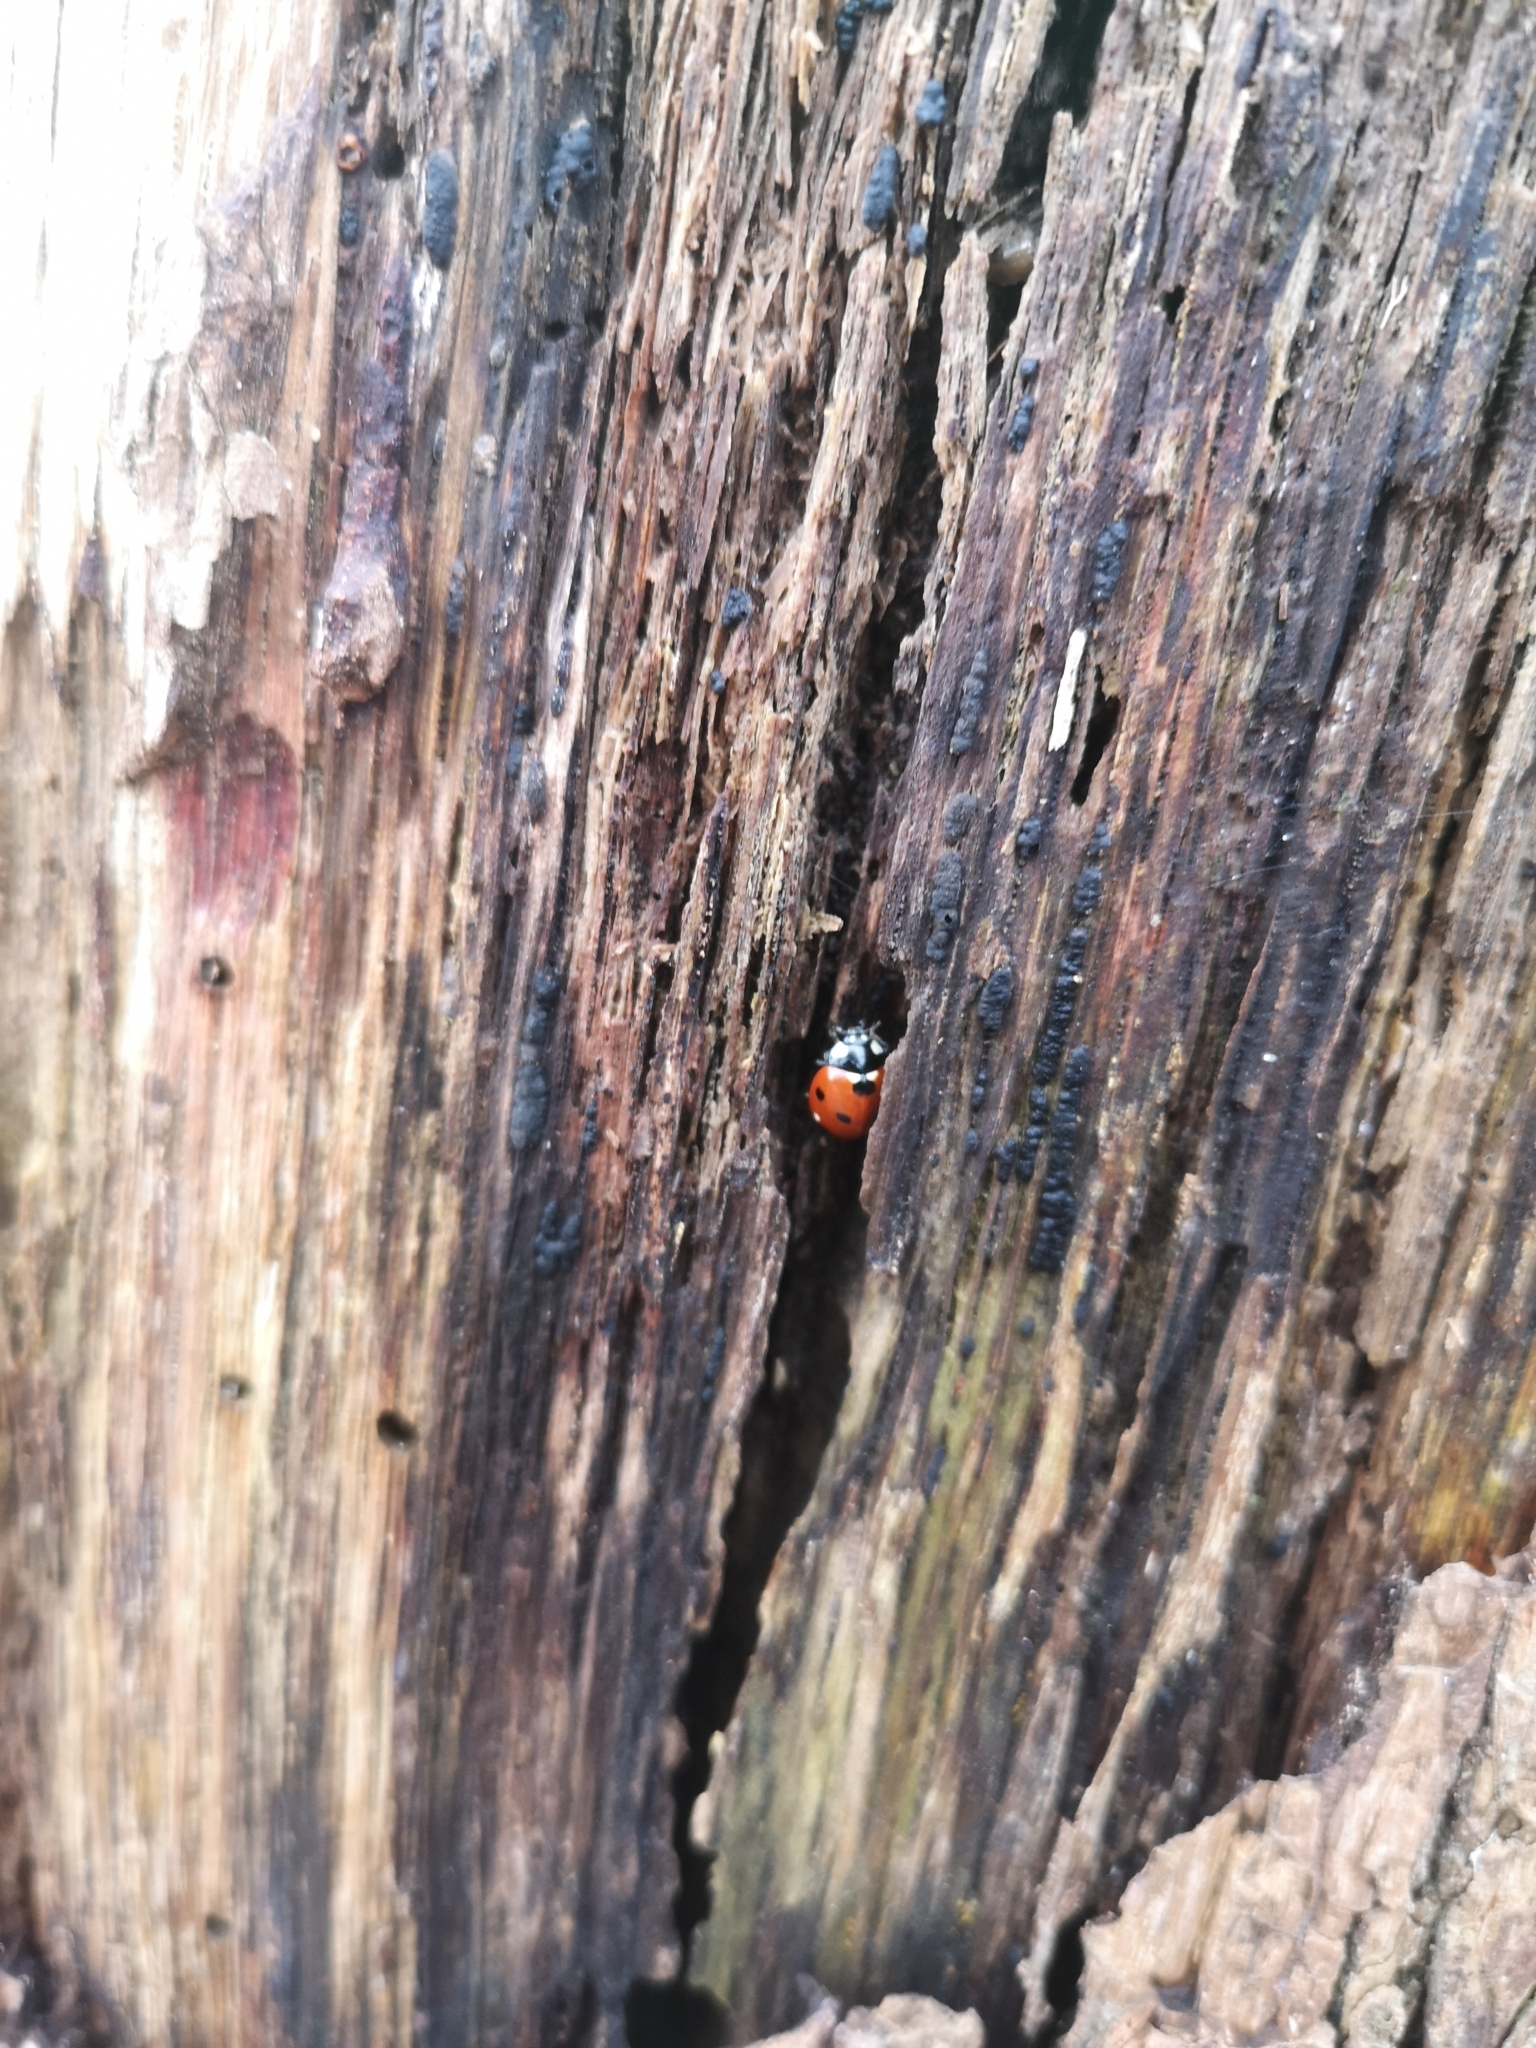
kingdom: Animalia
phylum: Arthropoda
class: Insecta
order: Coleoptera
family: Coccinellidae
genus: Coccinella
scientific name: Coccinella septempunctata
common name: Sevenspotted lady beetle
